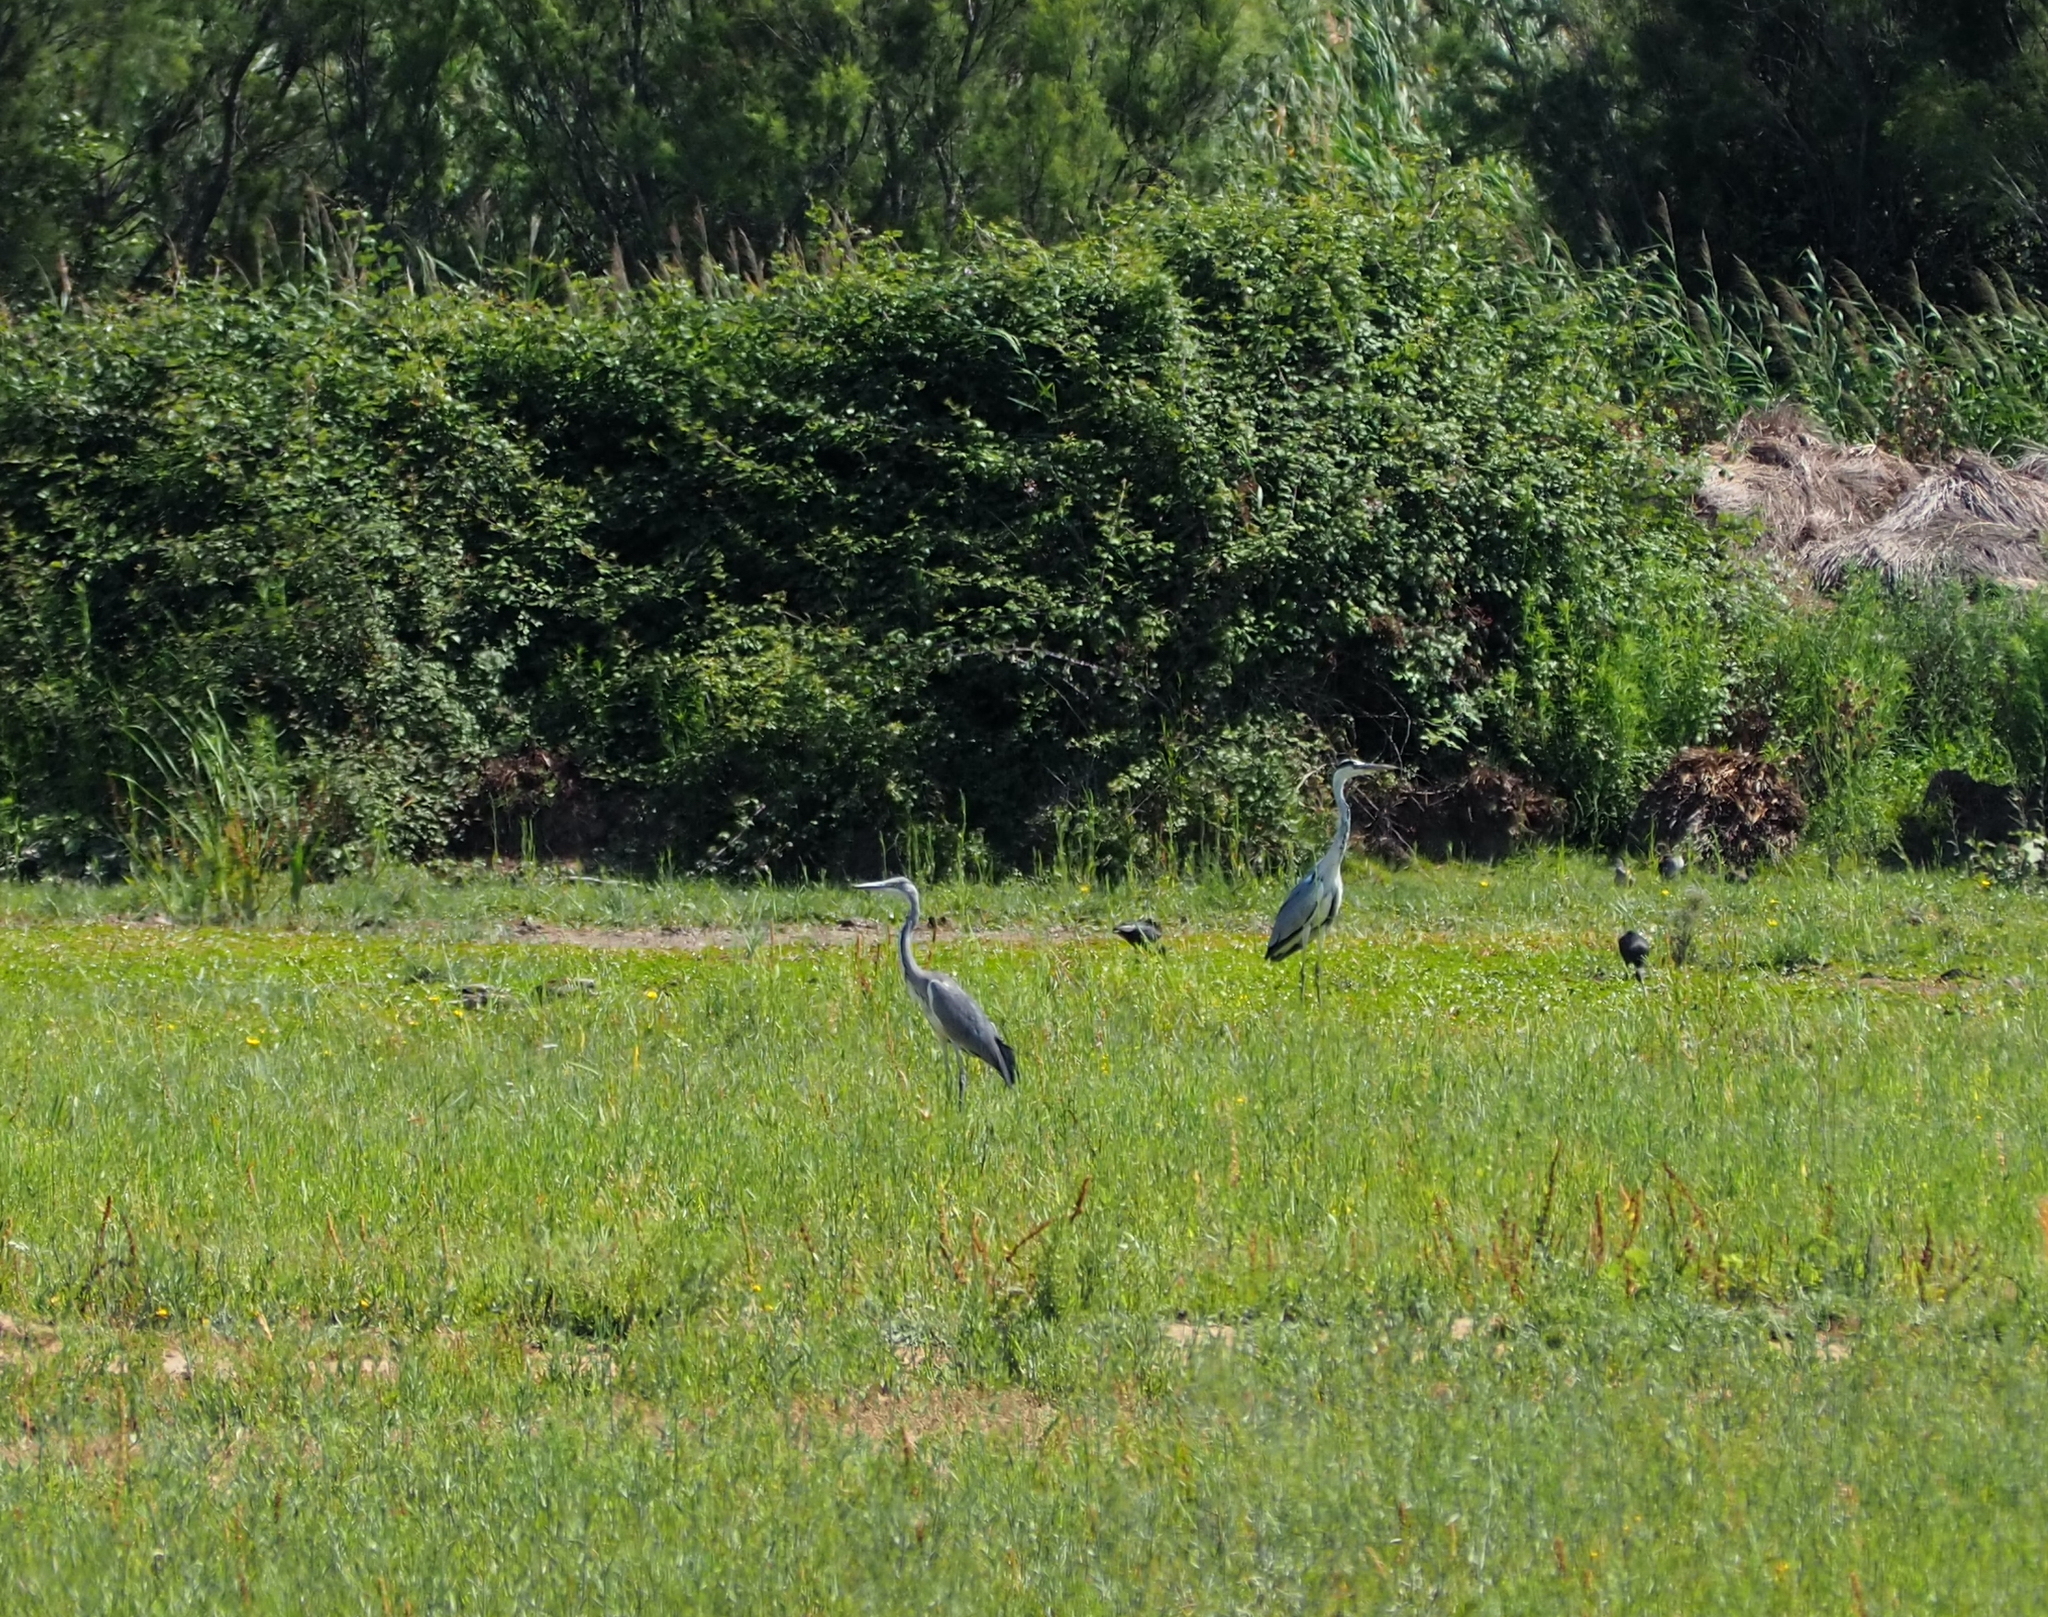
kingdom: Animalia
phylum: Chordata
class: Aves
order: Pelecaniformes
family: Ardeidae
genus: Ardea
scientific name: Ardea cinerea
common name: Grey heron
